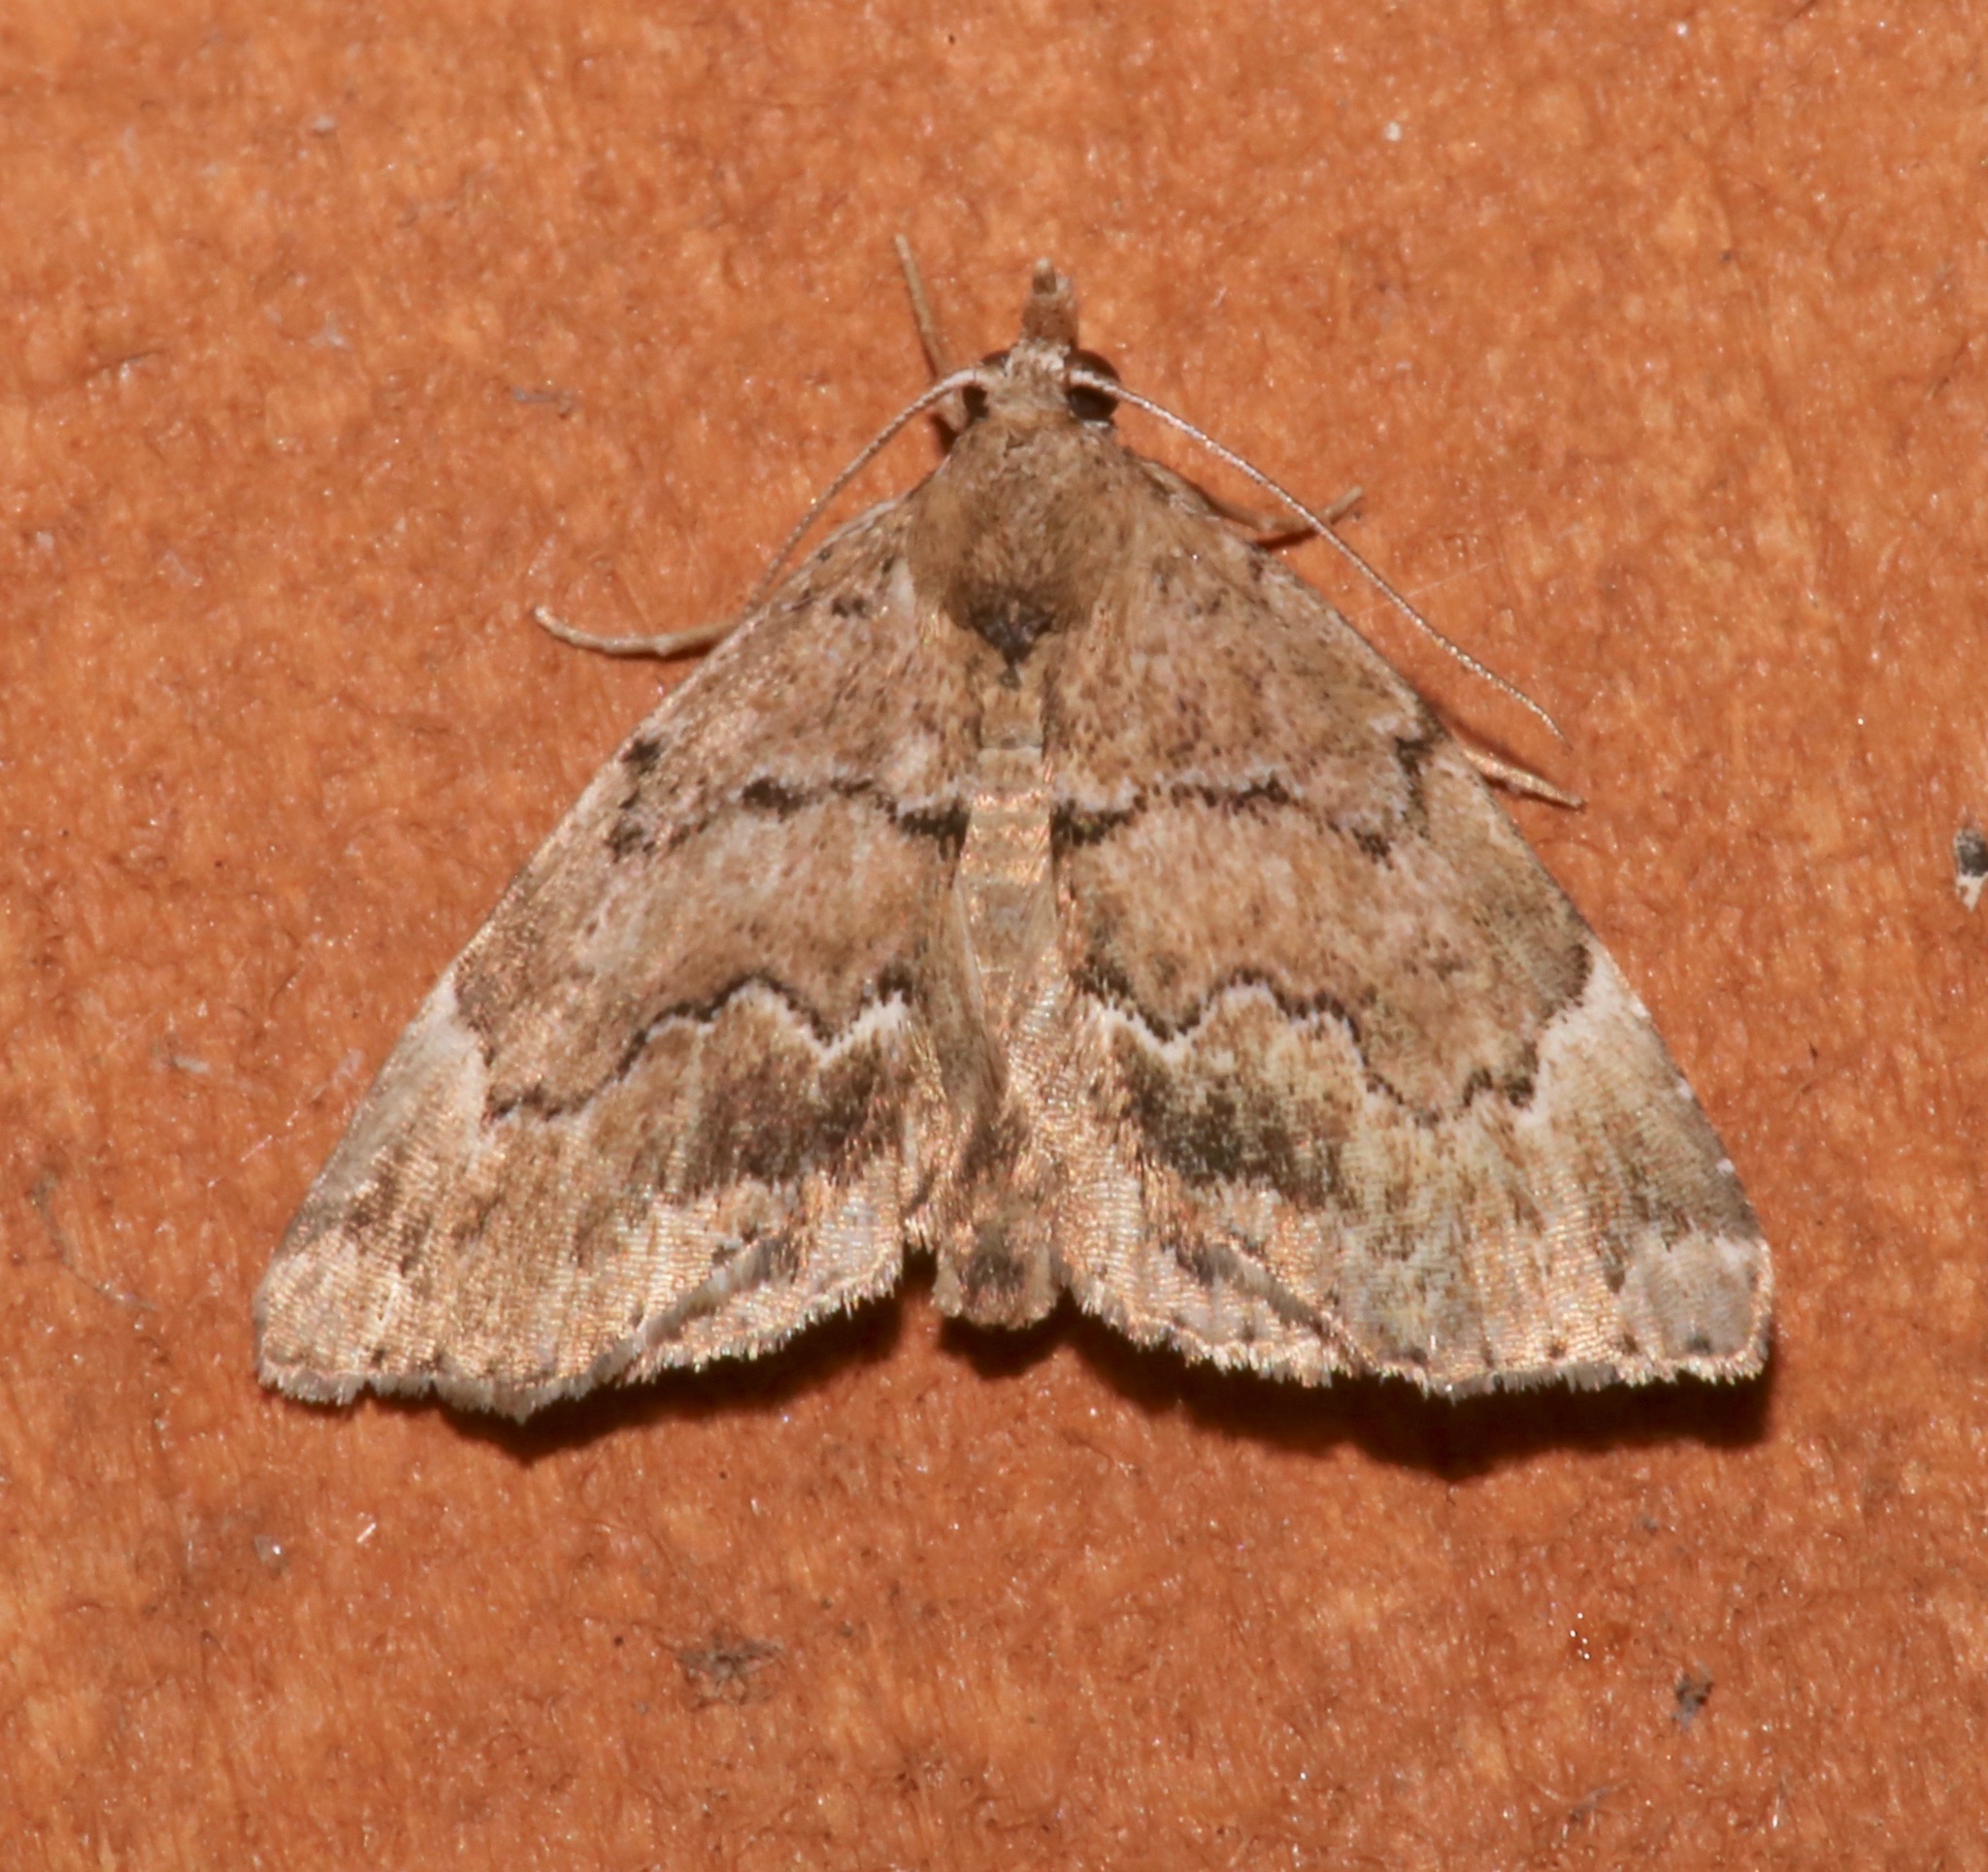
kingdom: Animalia
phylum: Arthropoda
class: Insecta
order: Lepidoptera
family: Erebidae
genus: Cutina
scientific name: Cutina aluticolor
